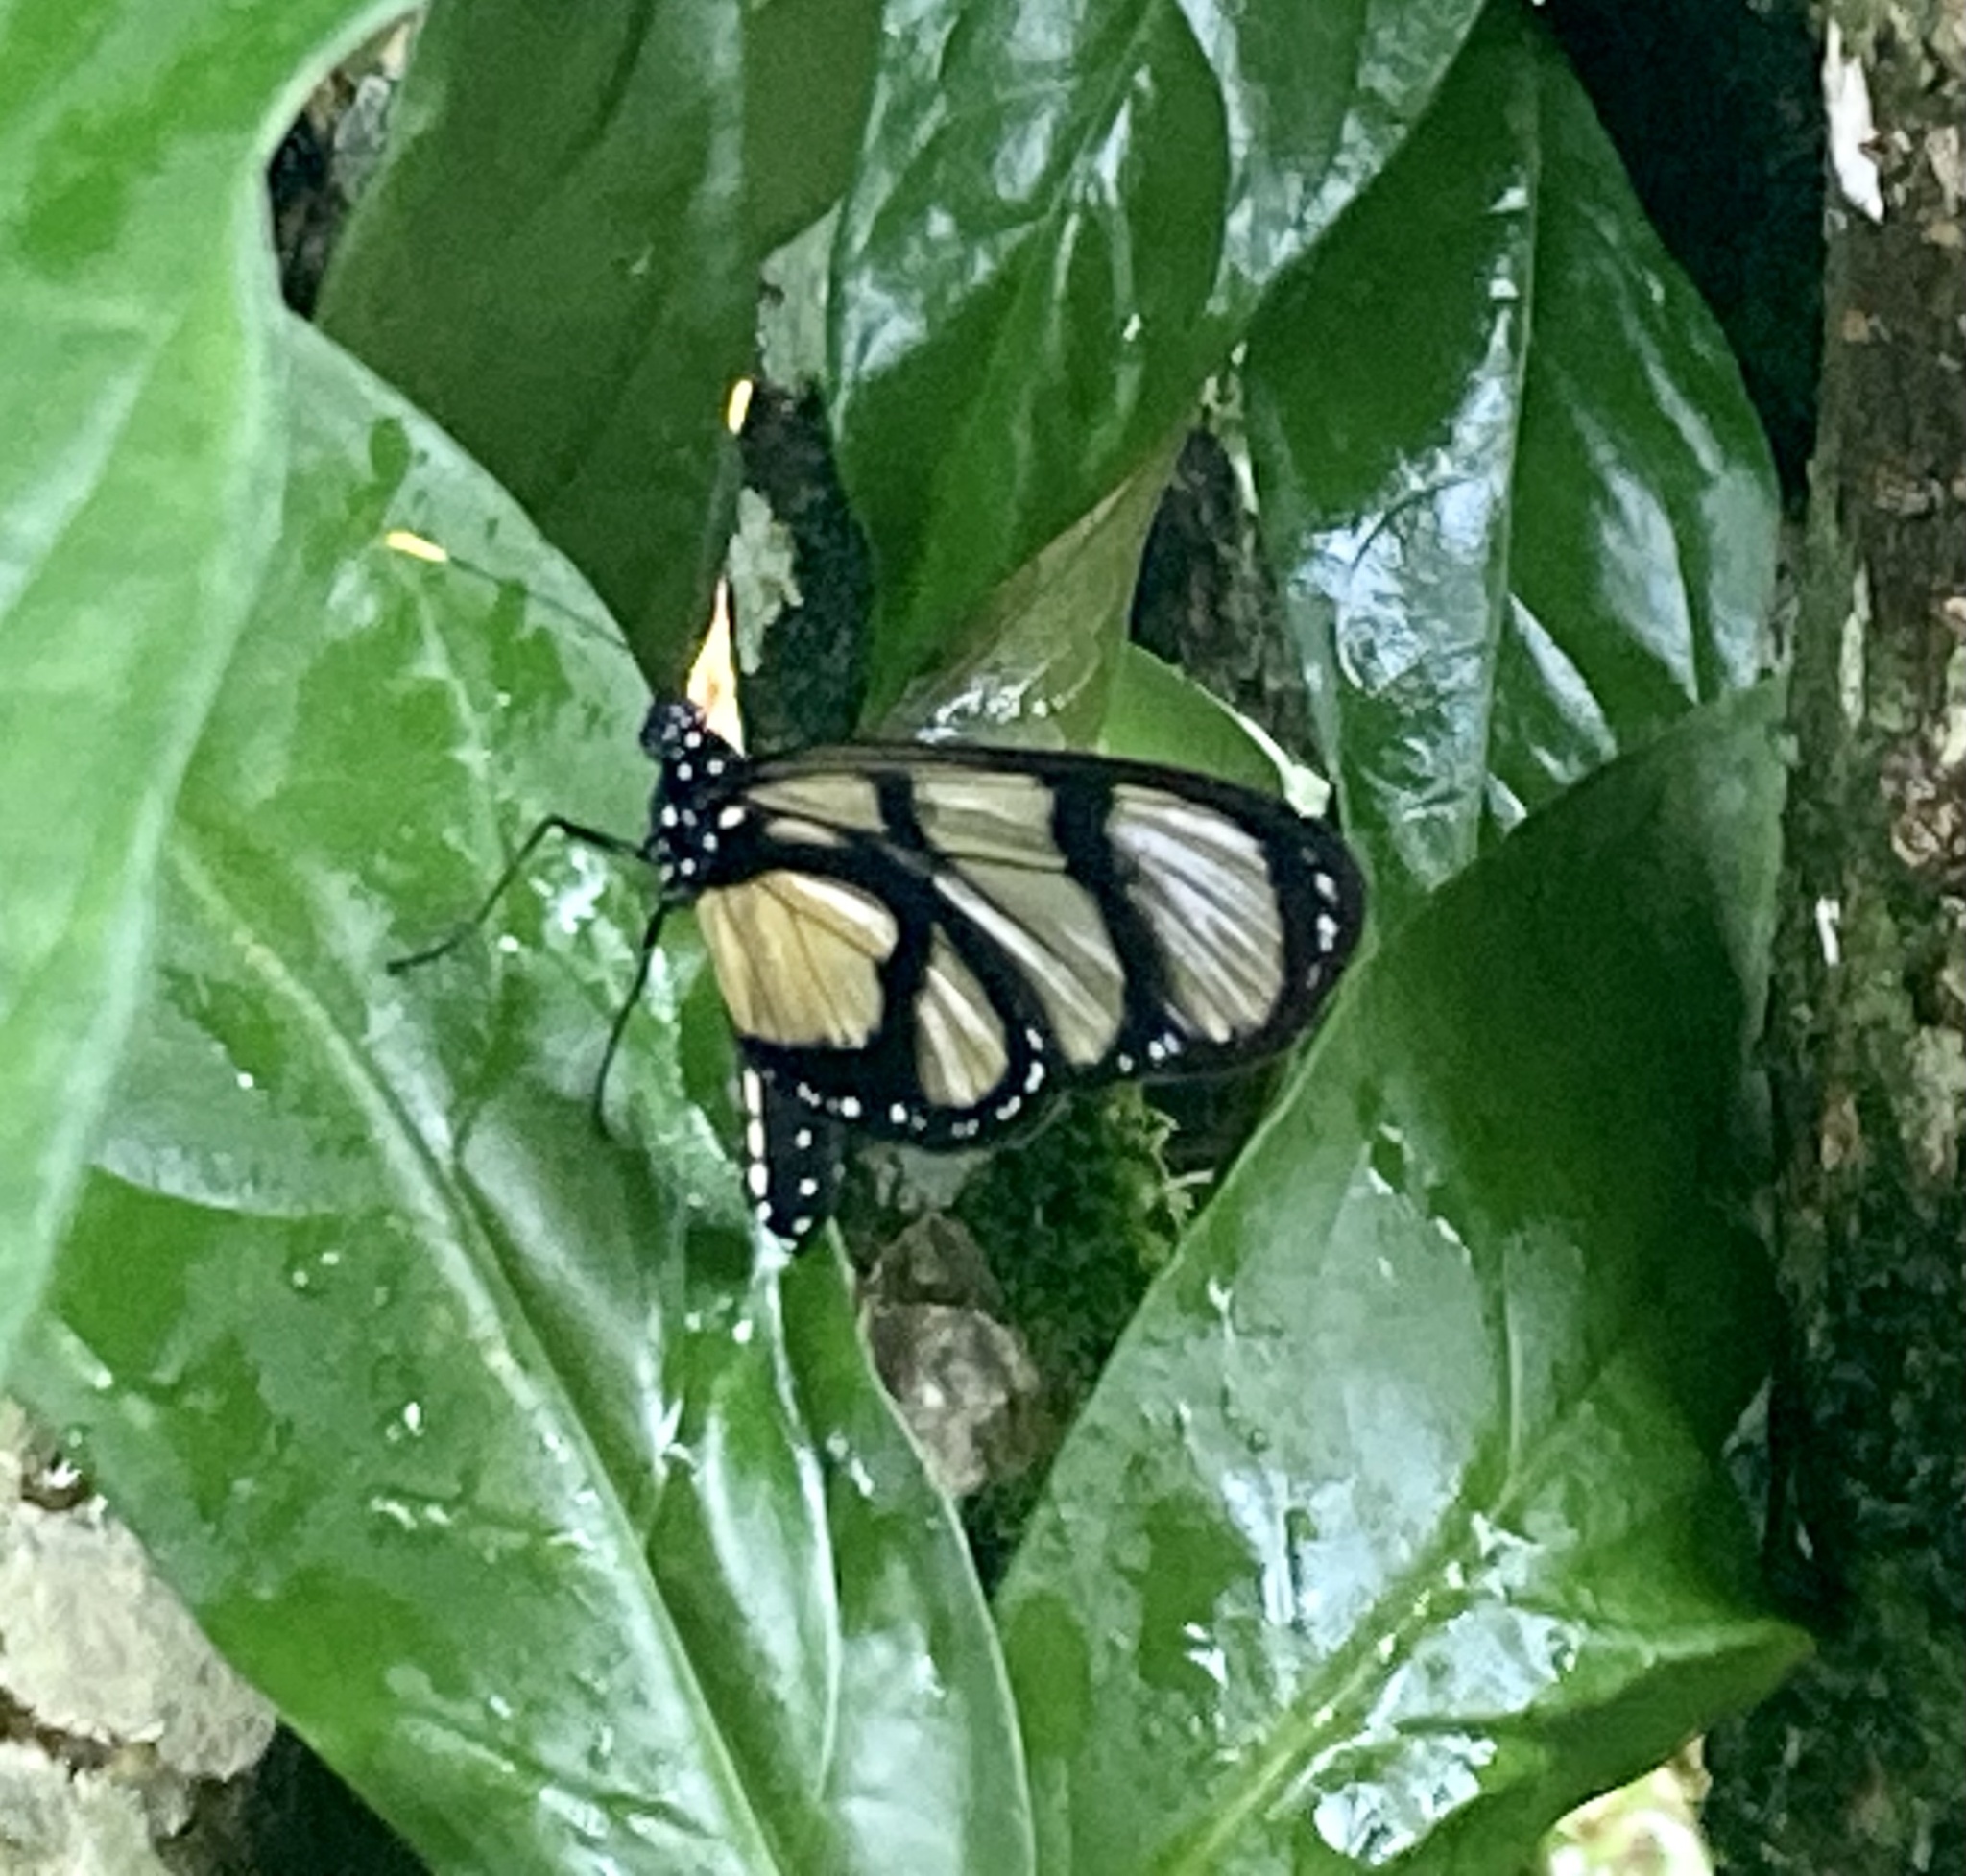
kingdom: Animalia
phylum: Arthropoda
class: Insecta
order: Lepidoptera
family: Nymphalidae
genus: Methona
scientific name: Methona confusa
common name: Confusa tigerwing
